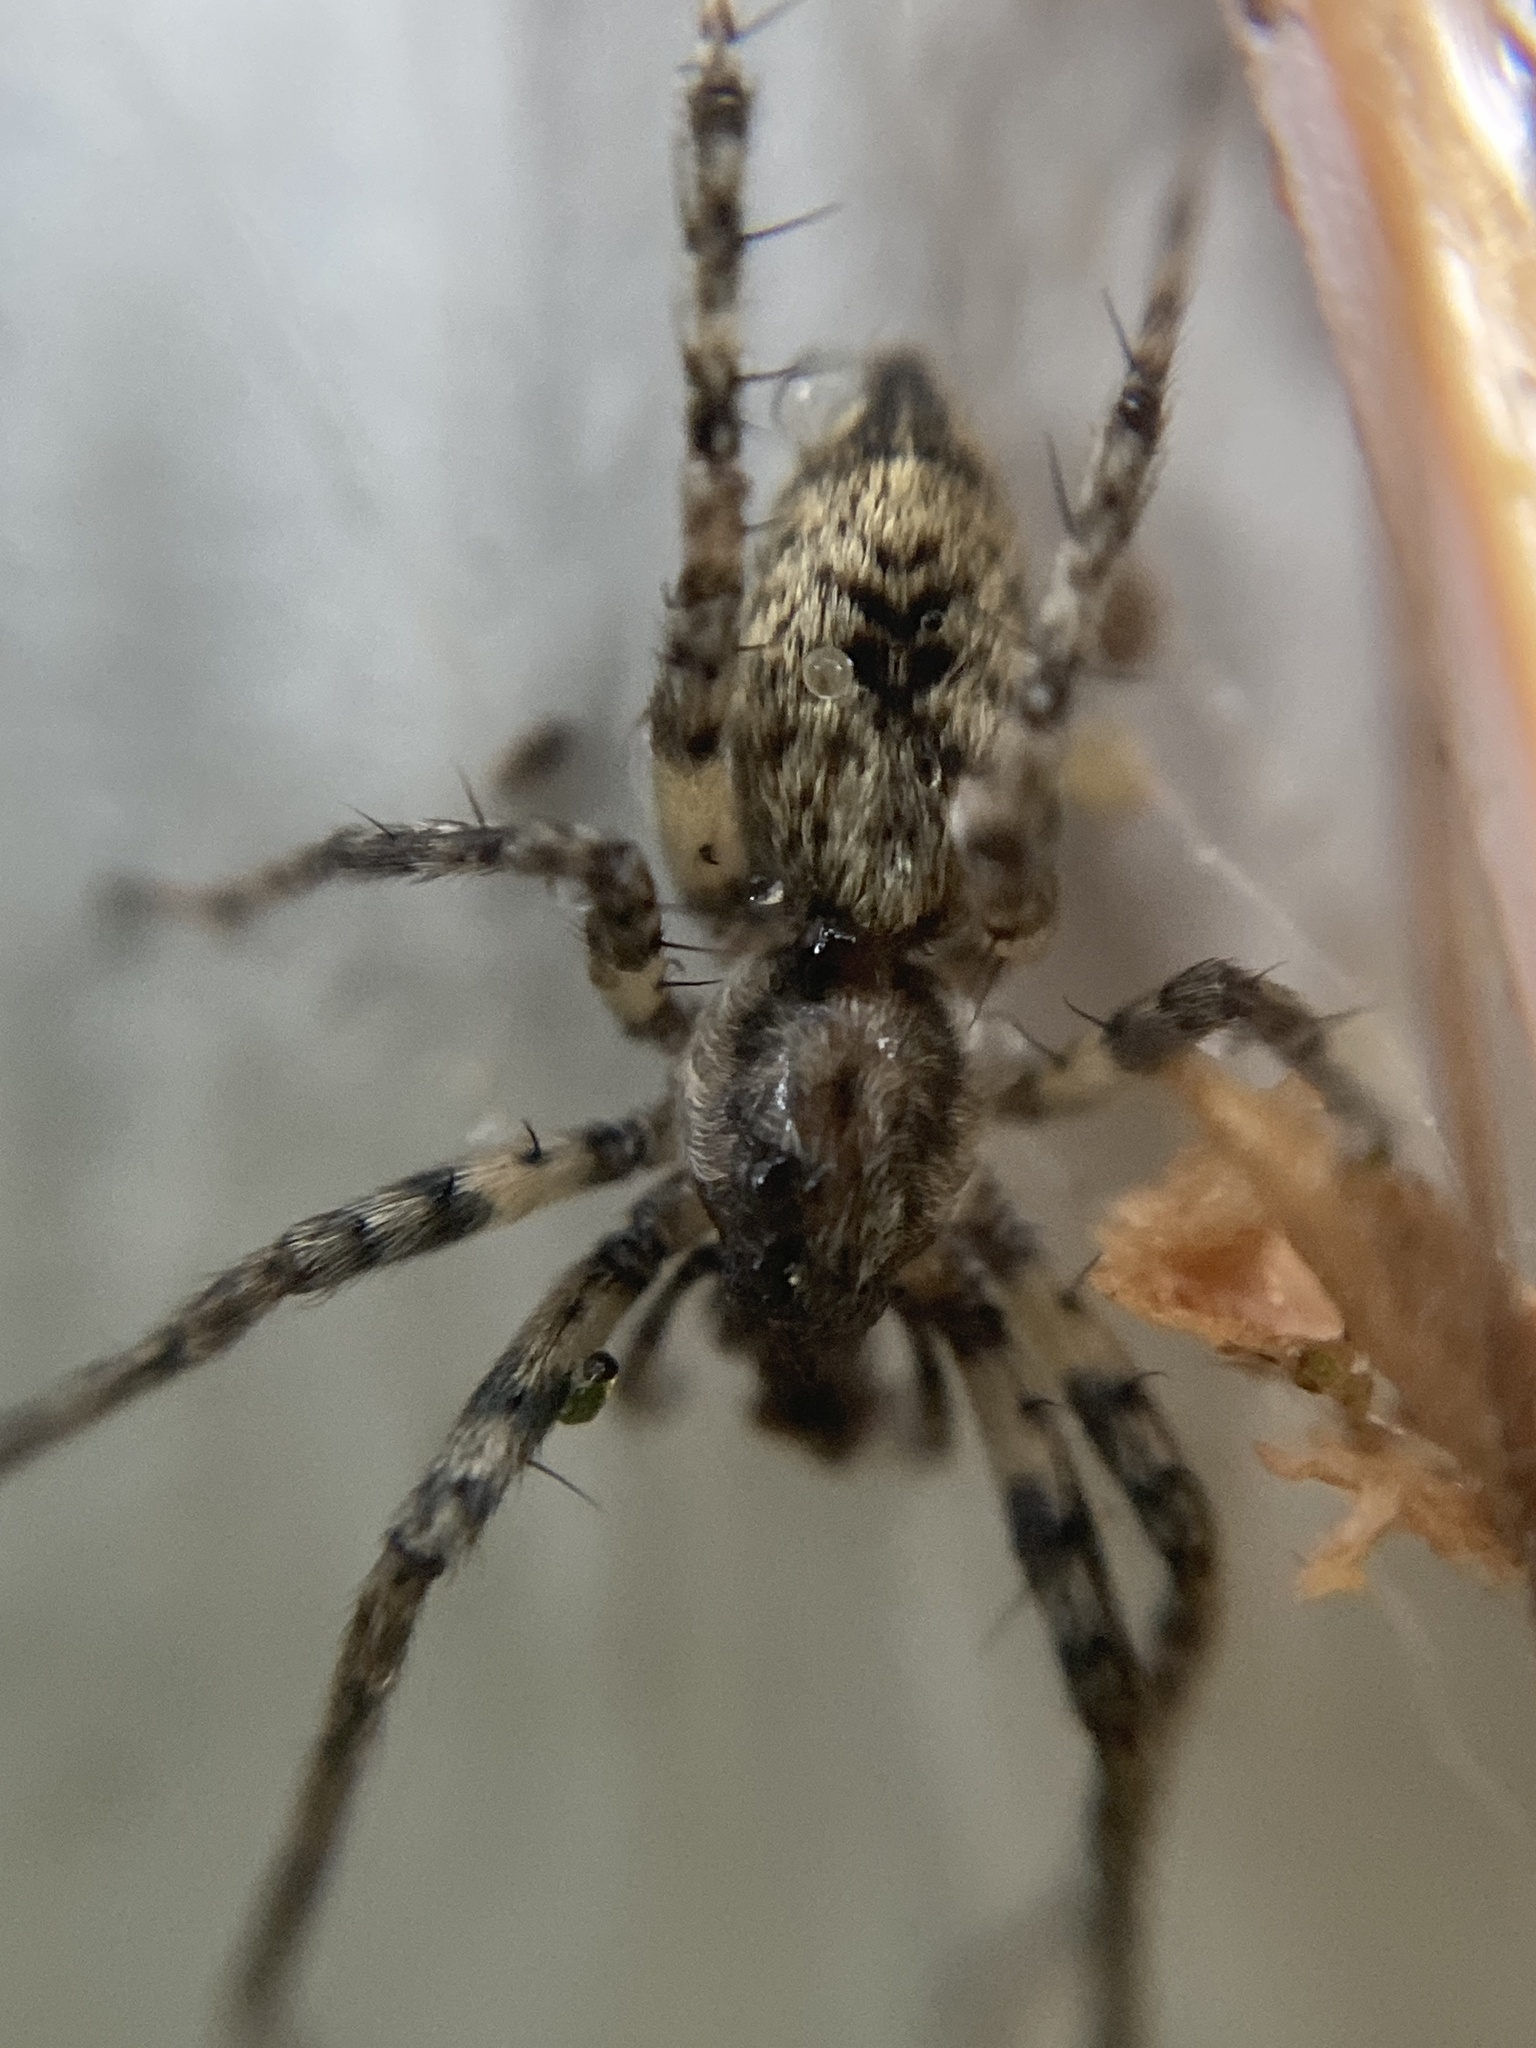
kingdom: Animalia
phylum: Arthropoda
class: Arachnida
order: Araneae
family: Anyphaenidae
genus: Anyphaena
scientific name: Anyphaena accentuata
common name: Buzzing spider
